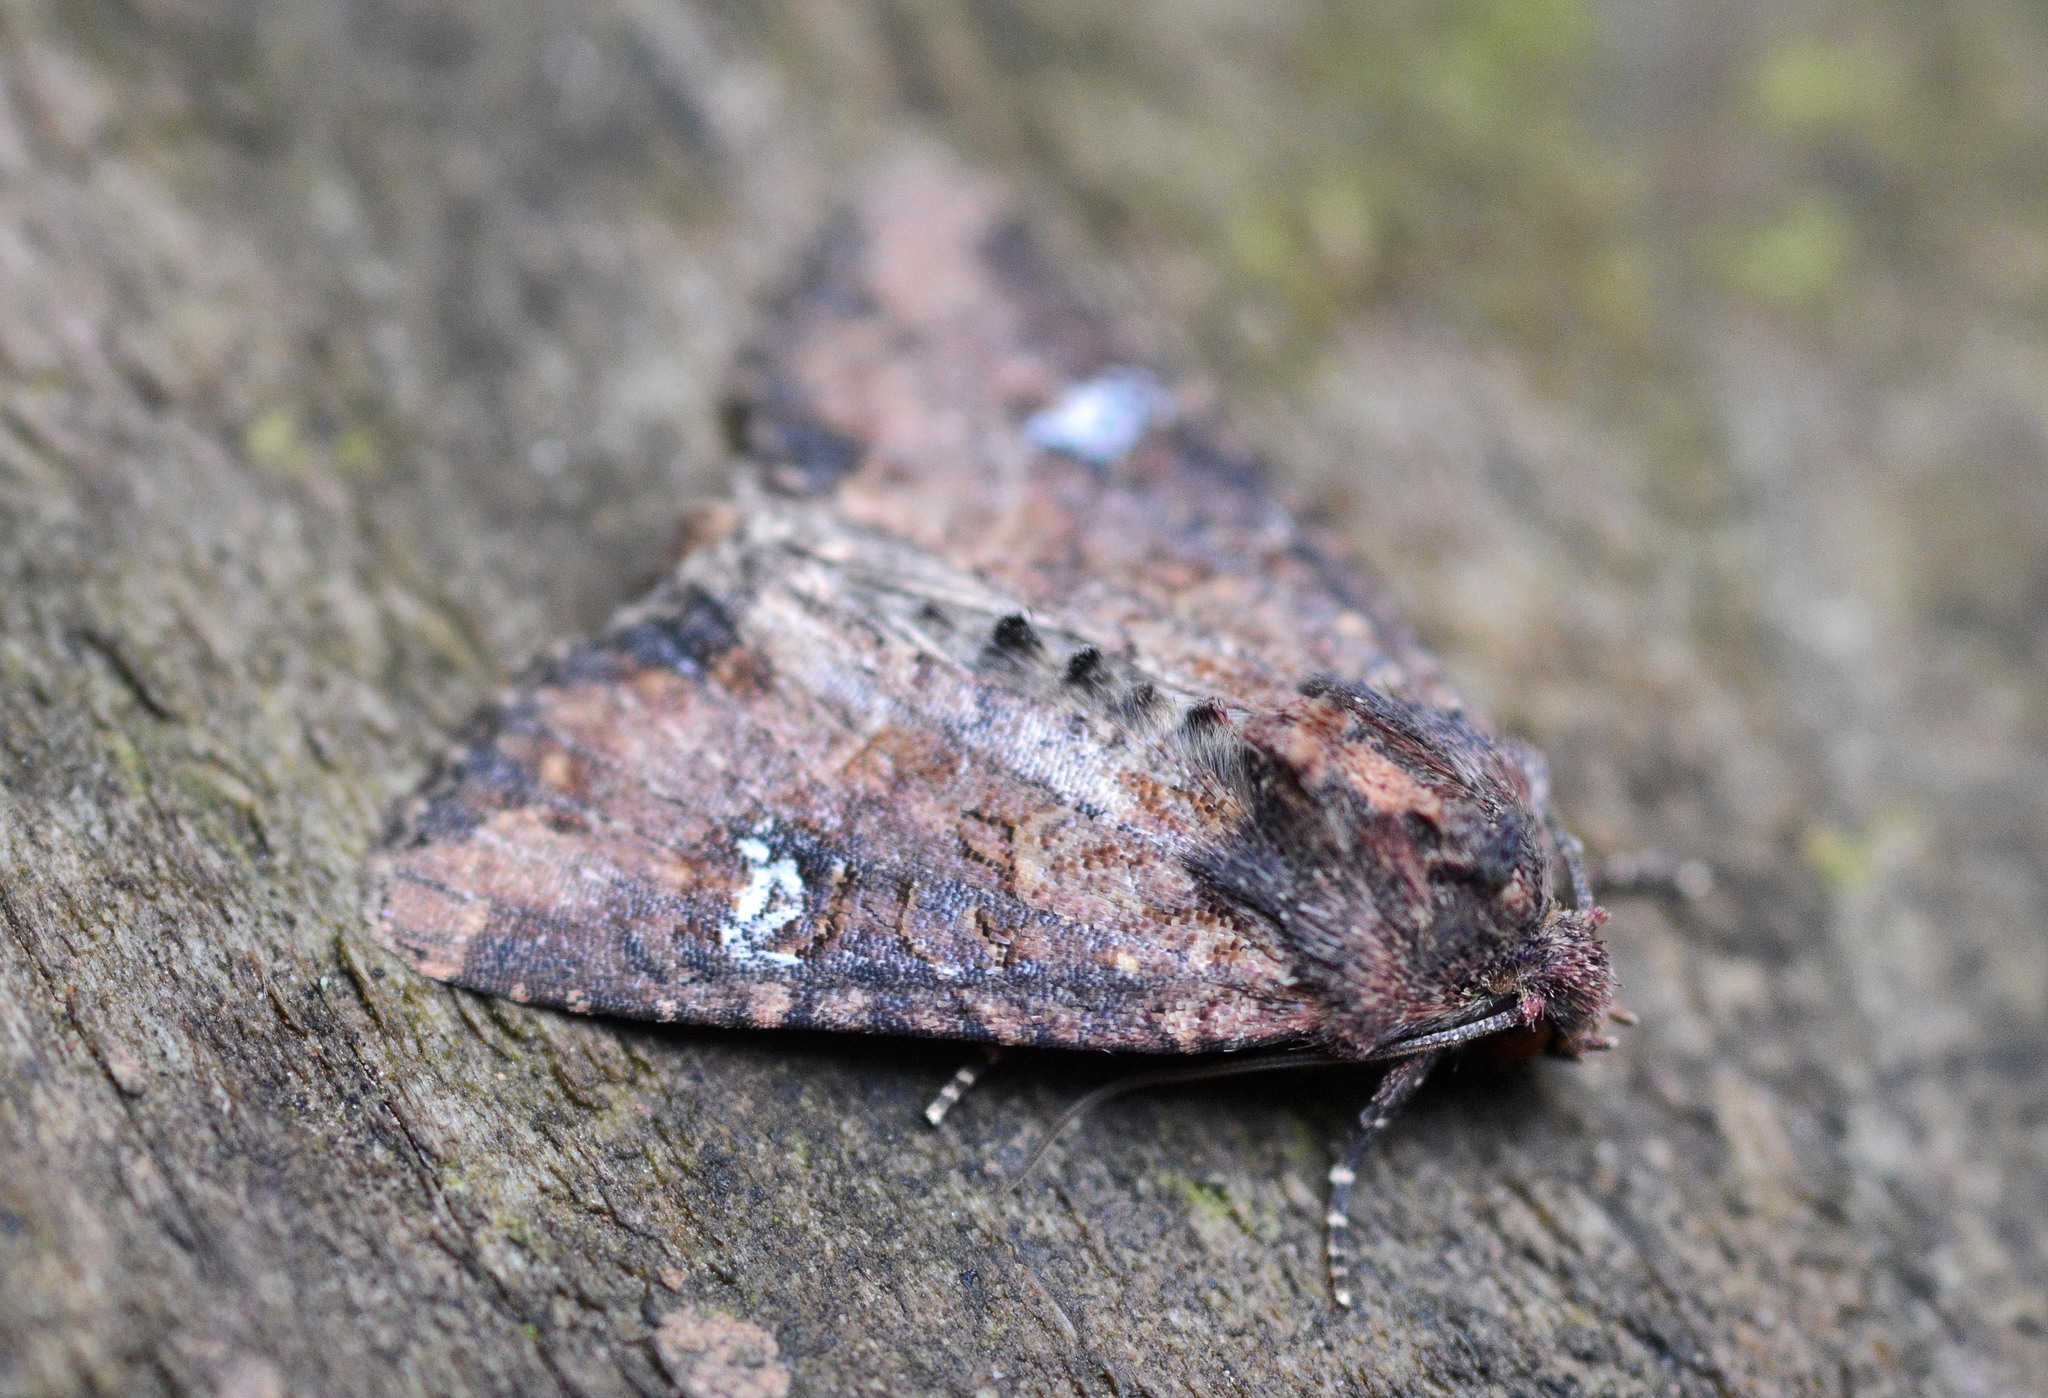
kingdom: Animalia
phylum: Arthropoda
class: Insecta
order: Lepidoptera
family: Noctuidae
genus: Mesapamea
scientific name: Mesapamea secalis
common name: Common rustic
